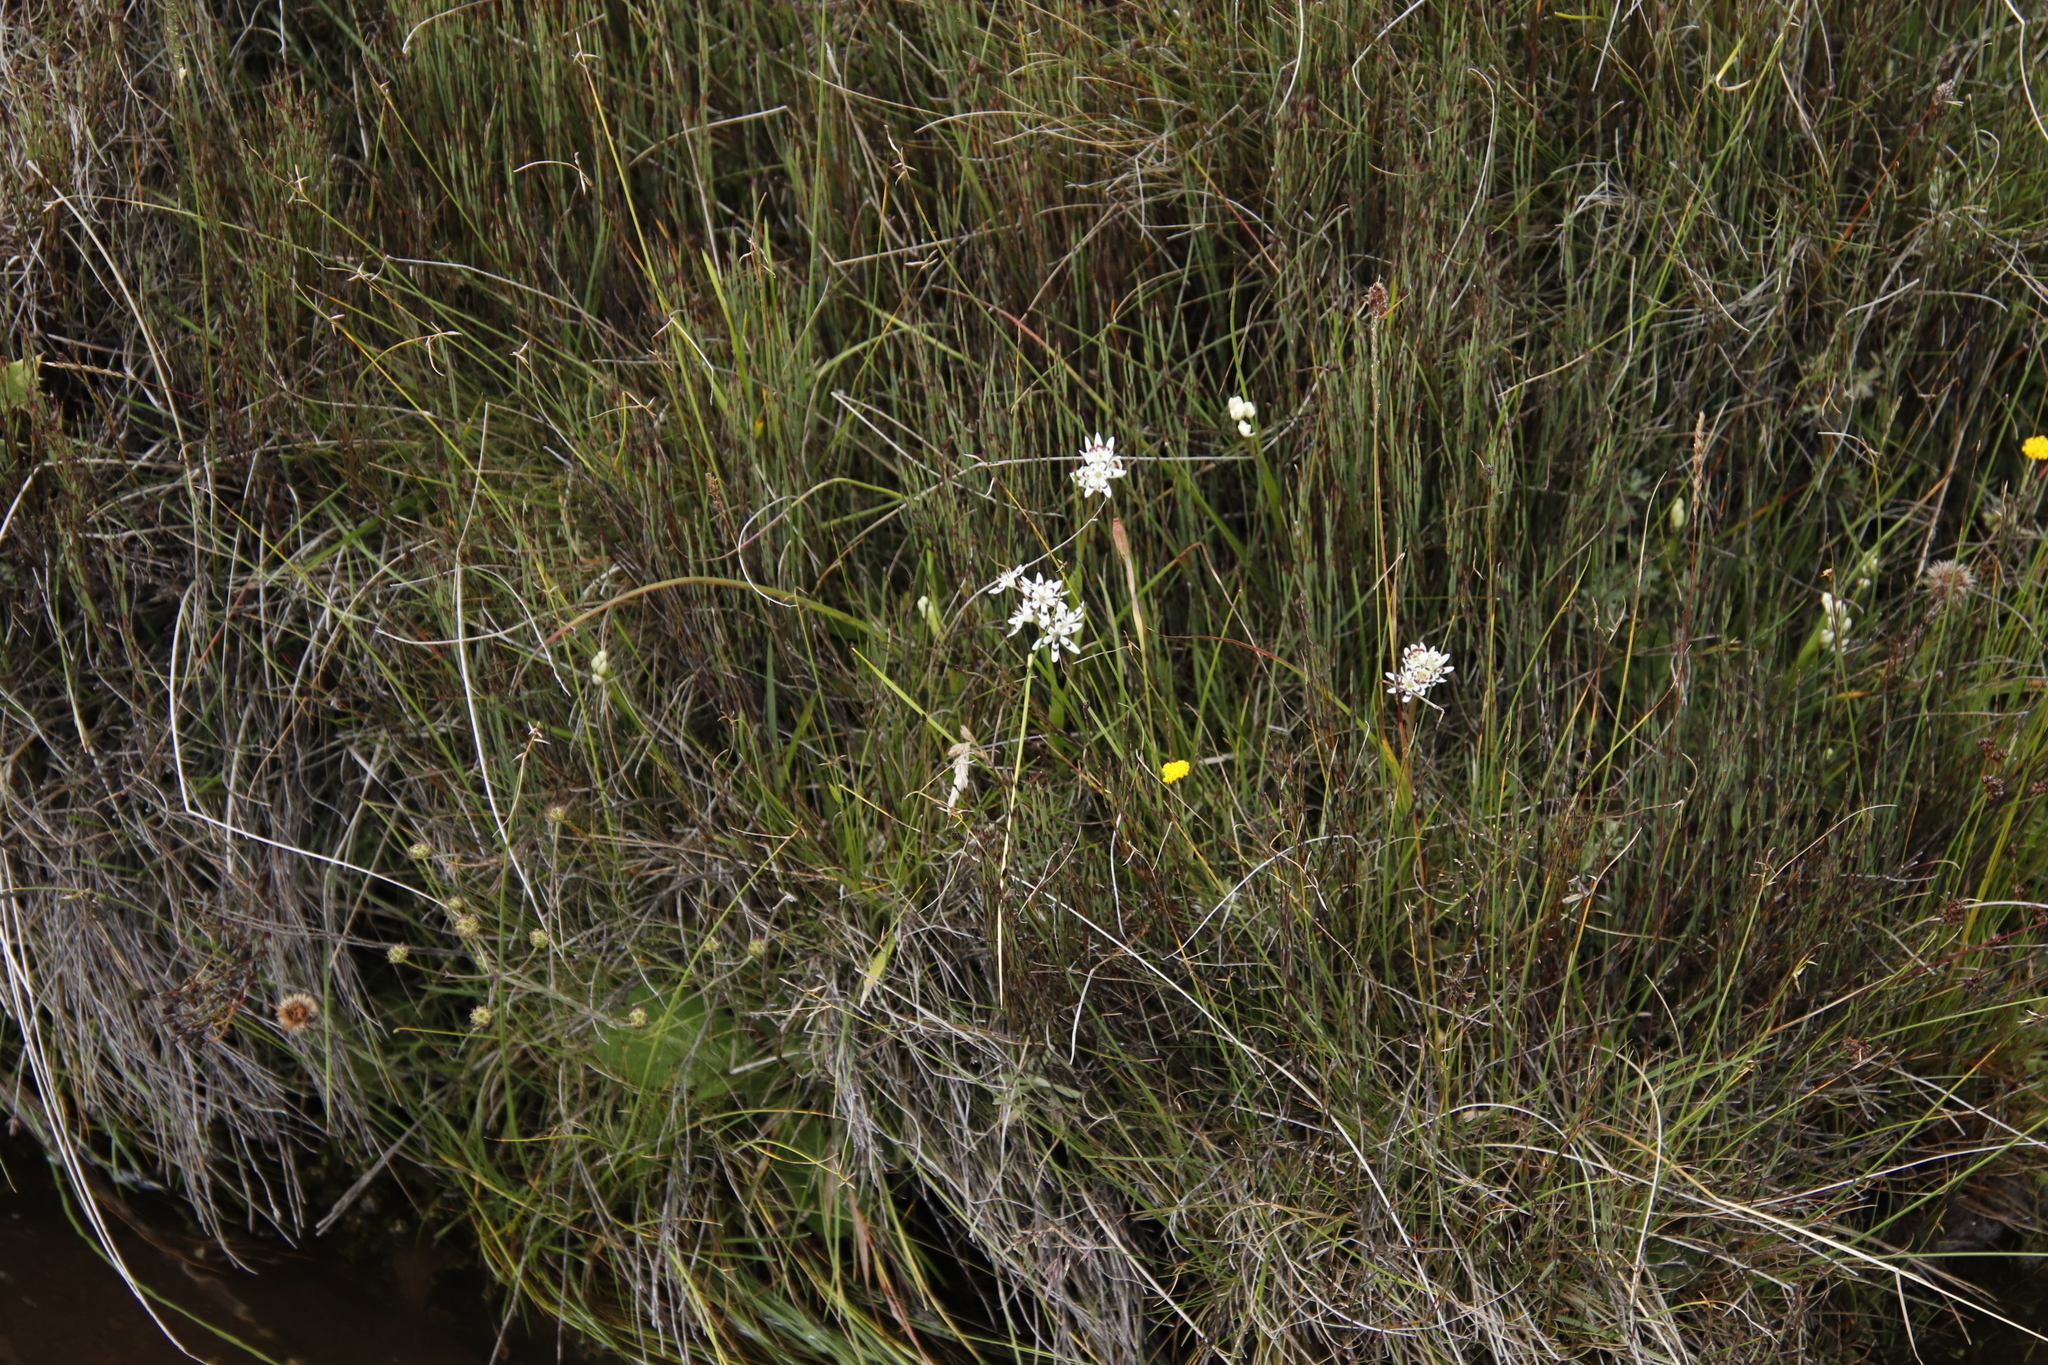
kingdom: Plantae
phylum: Tracheophyta
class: Liliopsida
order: Liliales
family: Colchicaceae
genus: Wurmbea
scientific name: Wurmbea elatior
